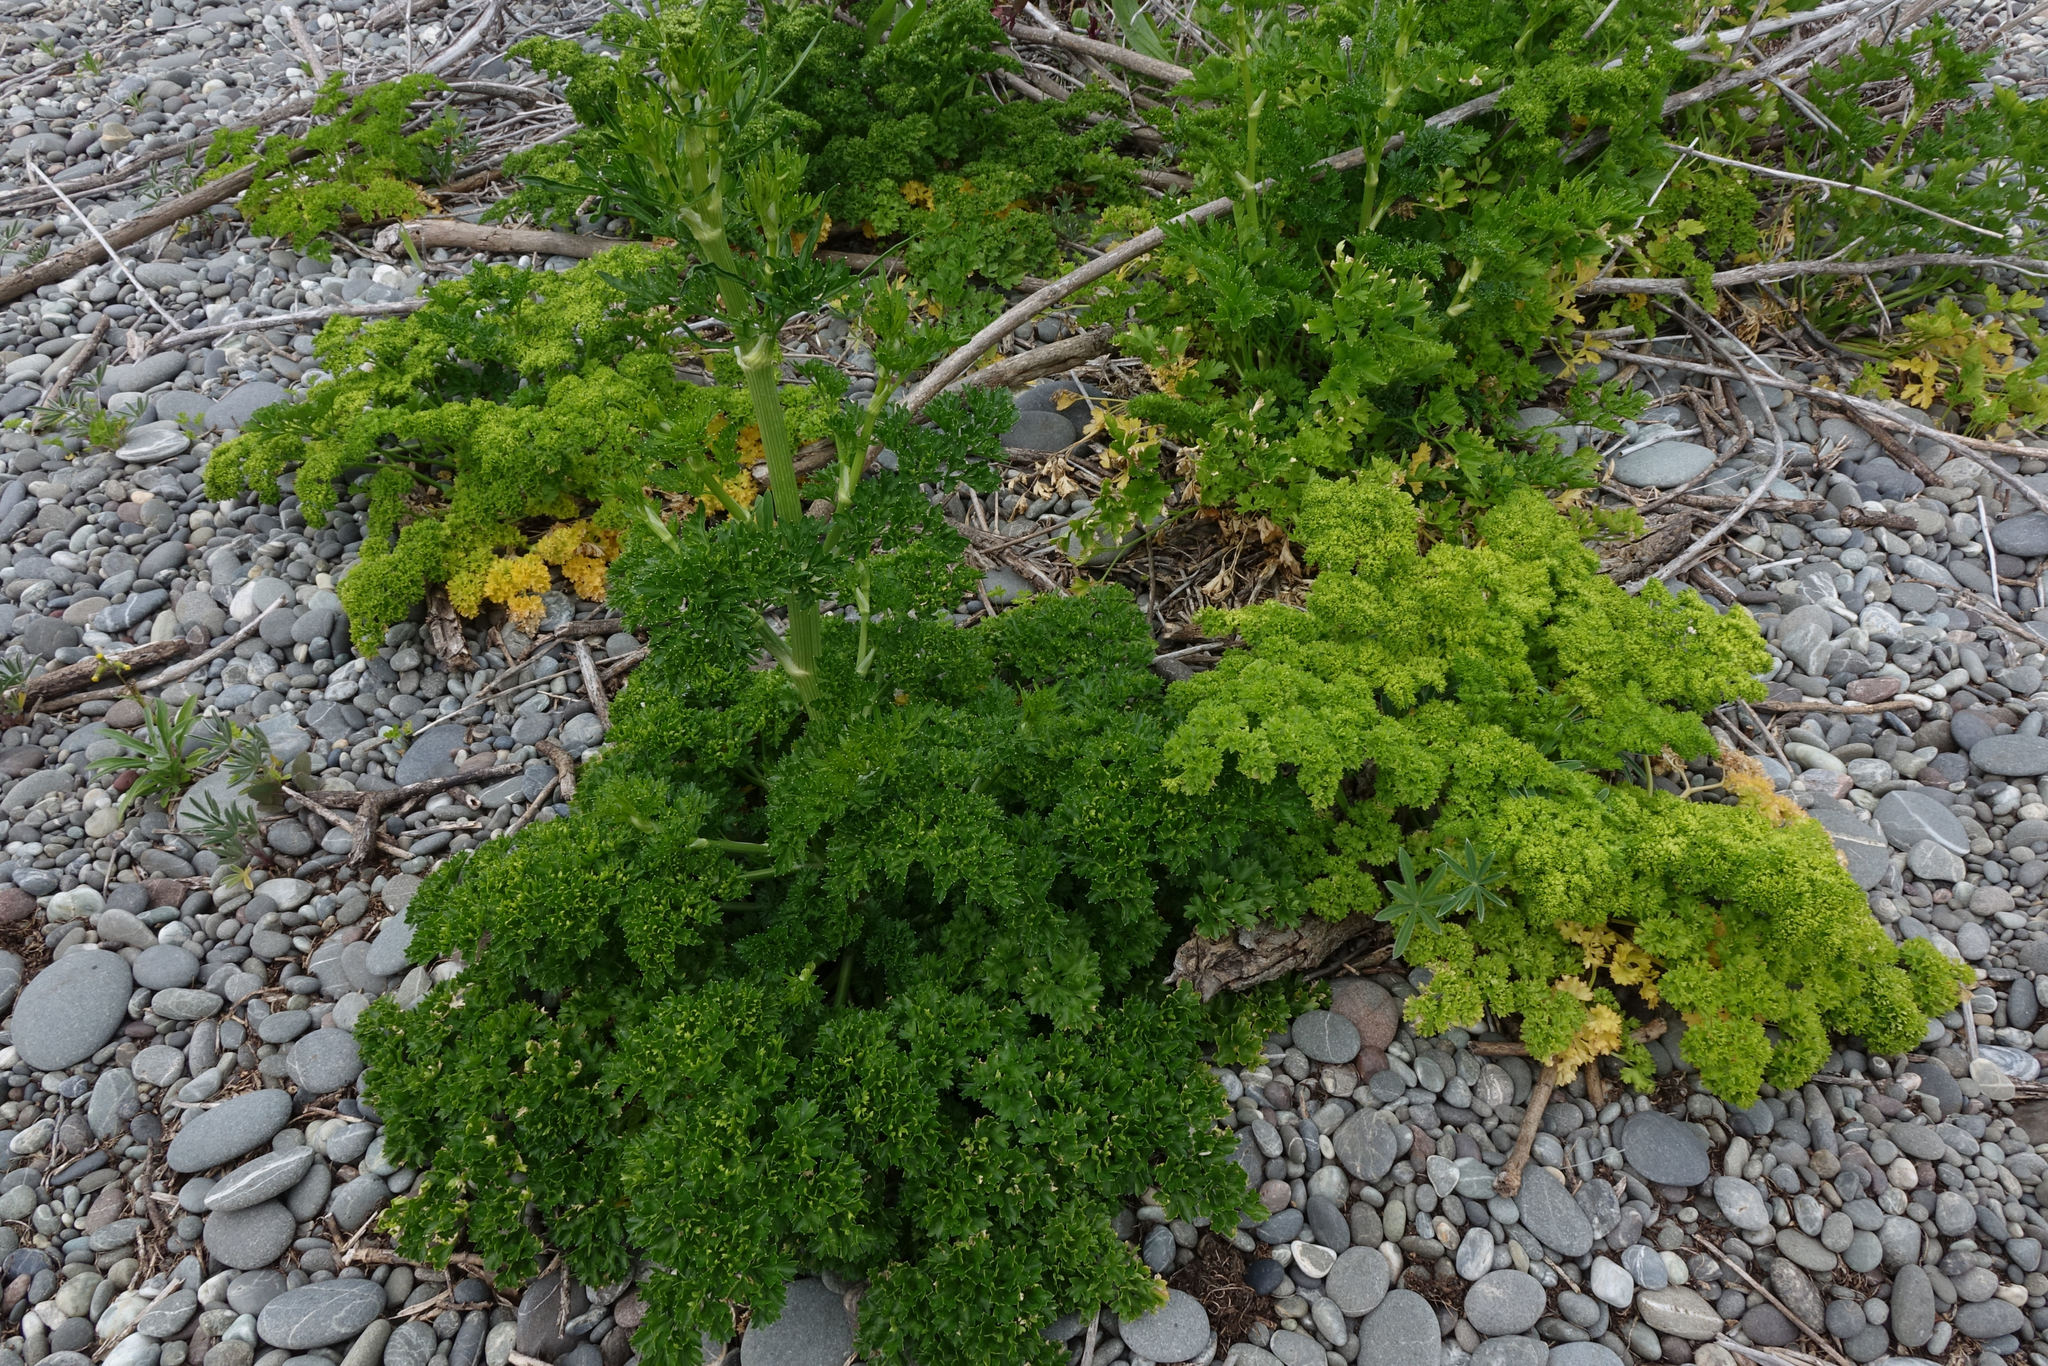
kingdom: Plantae
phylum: Tracheophyta
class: Magnoliopsida
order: Apiales
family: Apiaceae
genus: Petroselinum
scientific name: Petroselinum crispum
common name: Parsley
